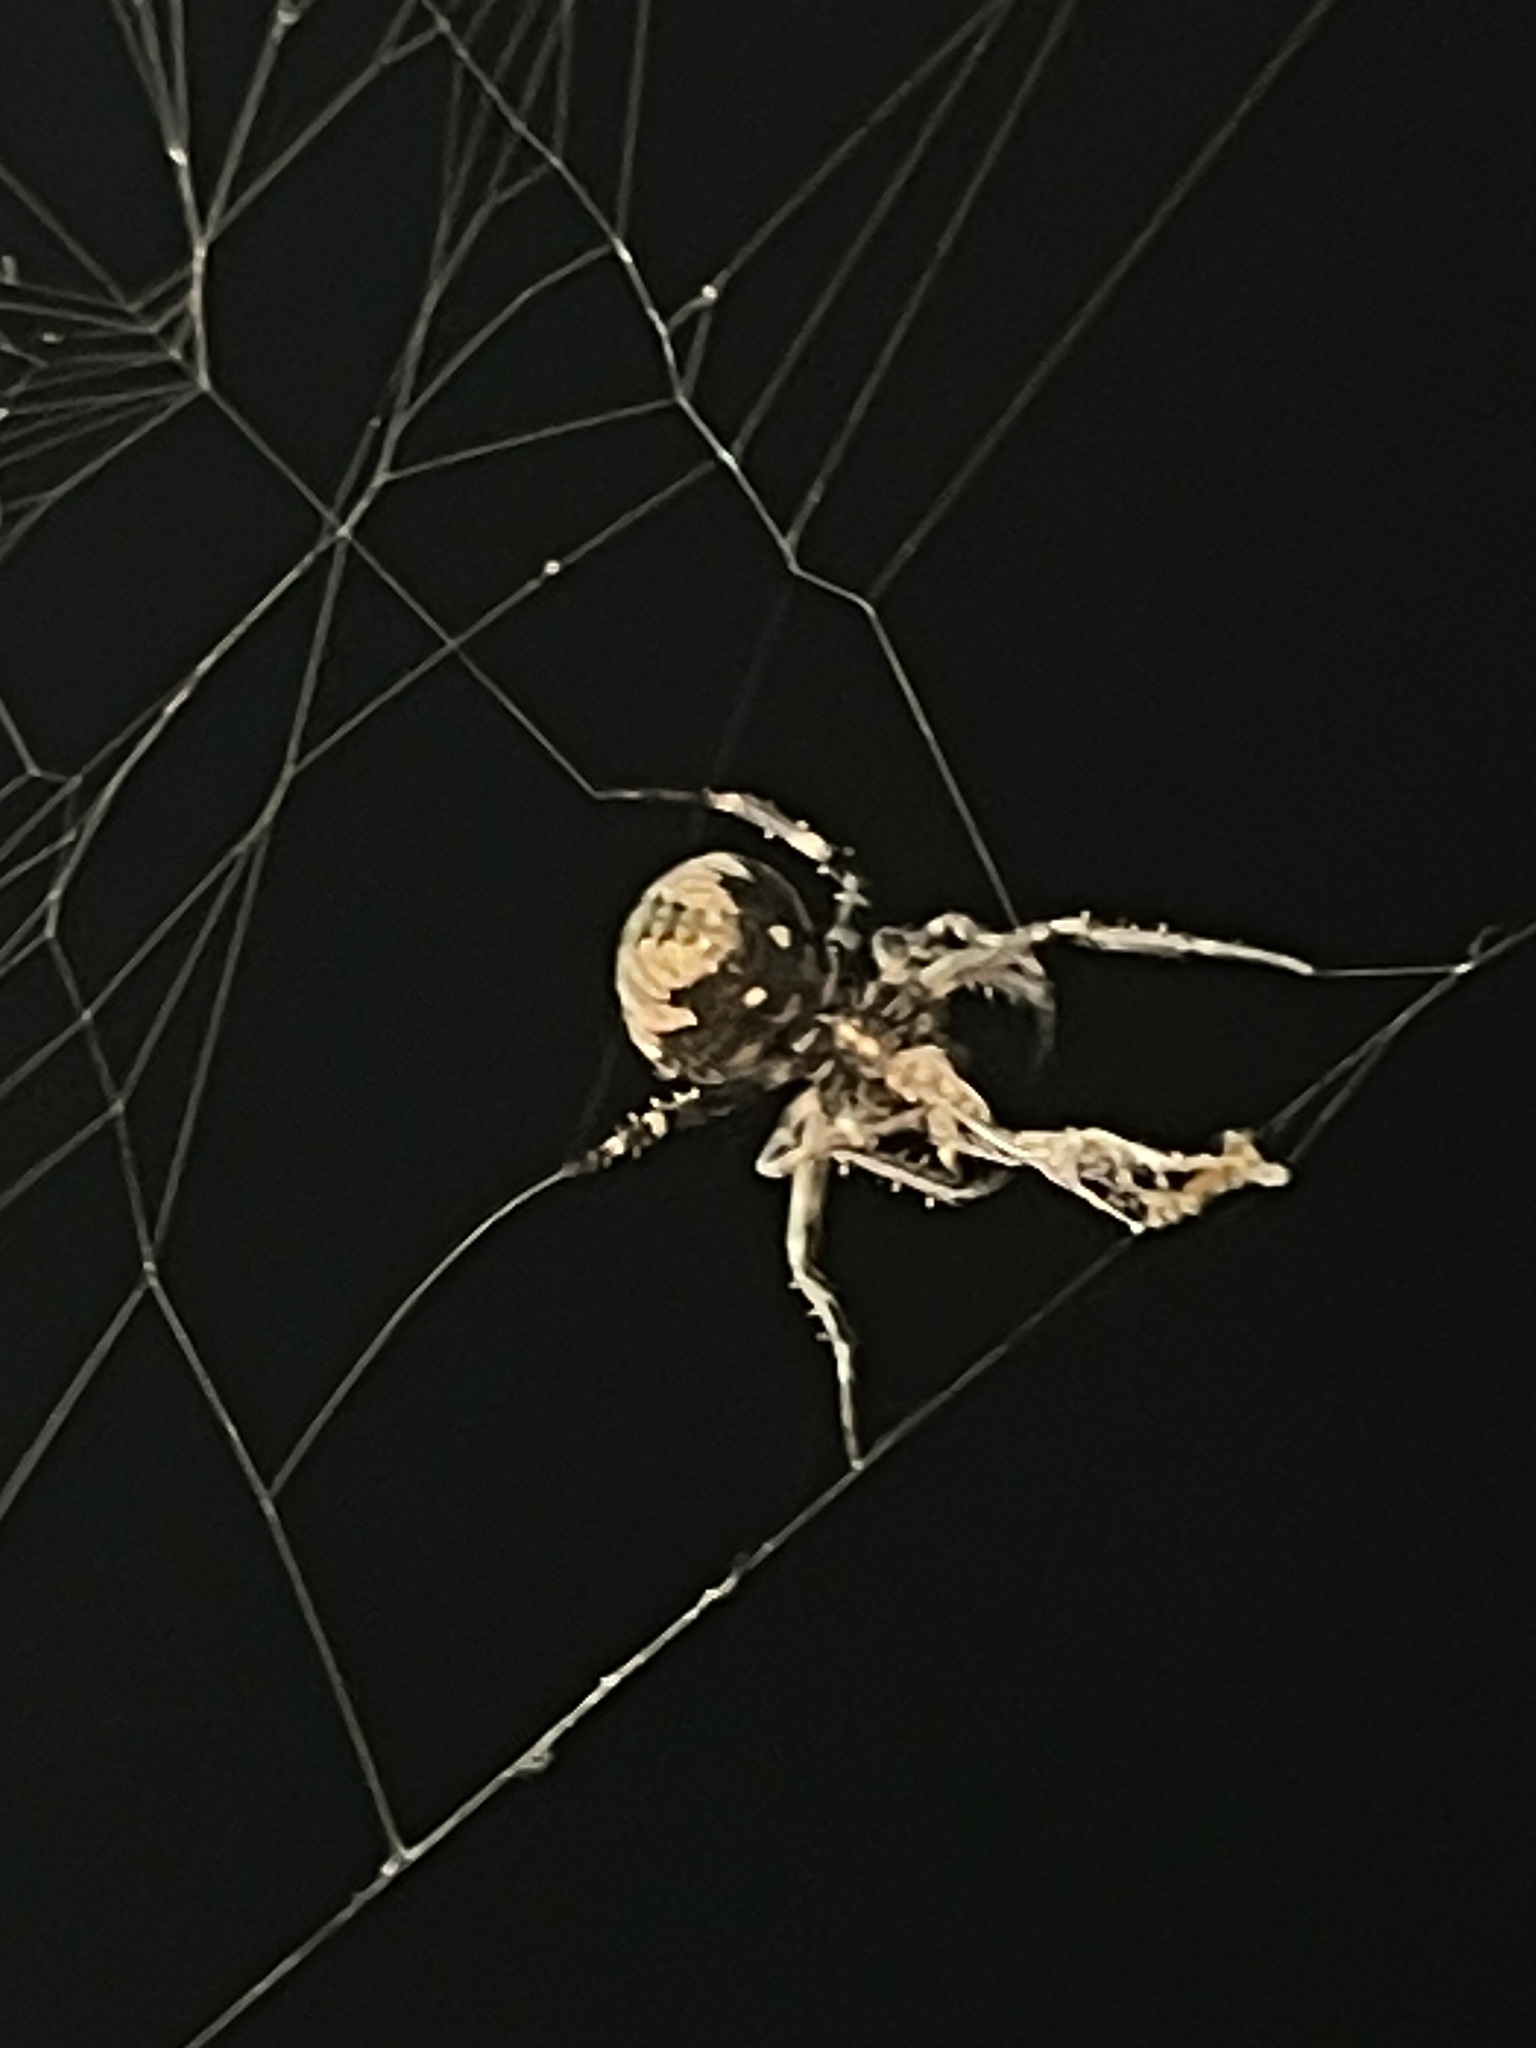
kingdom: Animalia
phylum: Arthropoda
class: Arachnida
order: Araneae
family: Araneidae
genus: Araneus
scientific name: Araneus ventricosus
